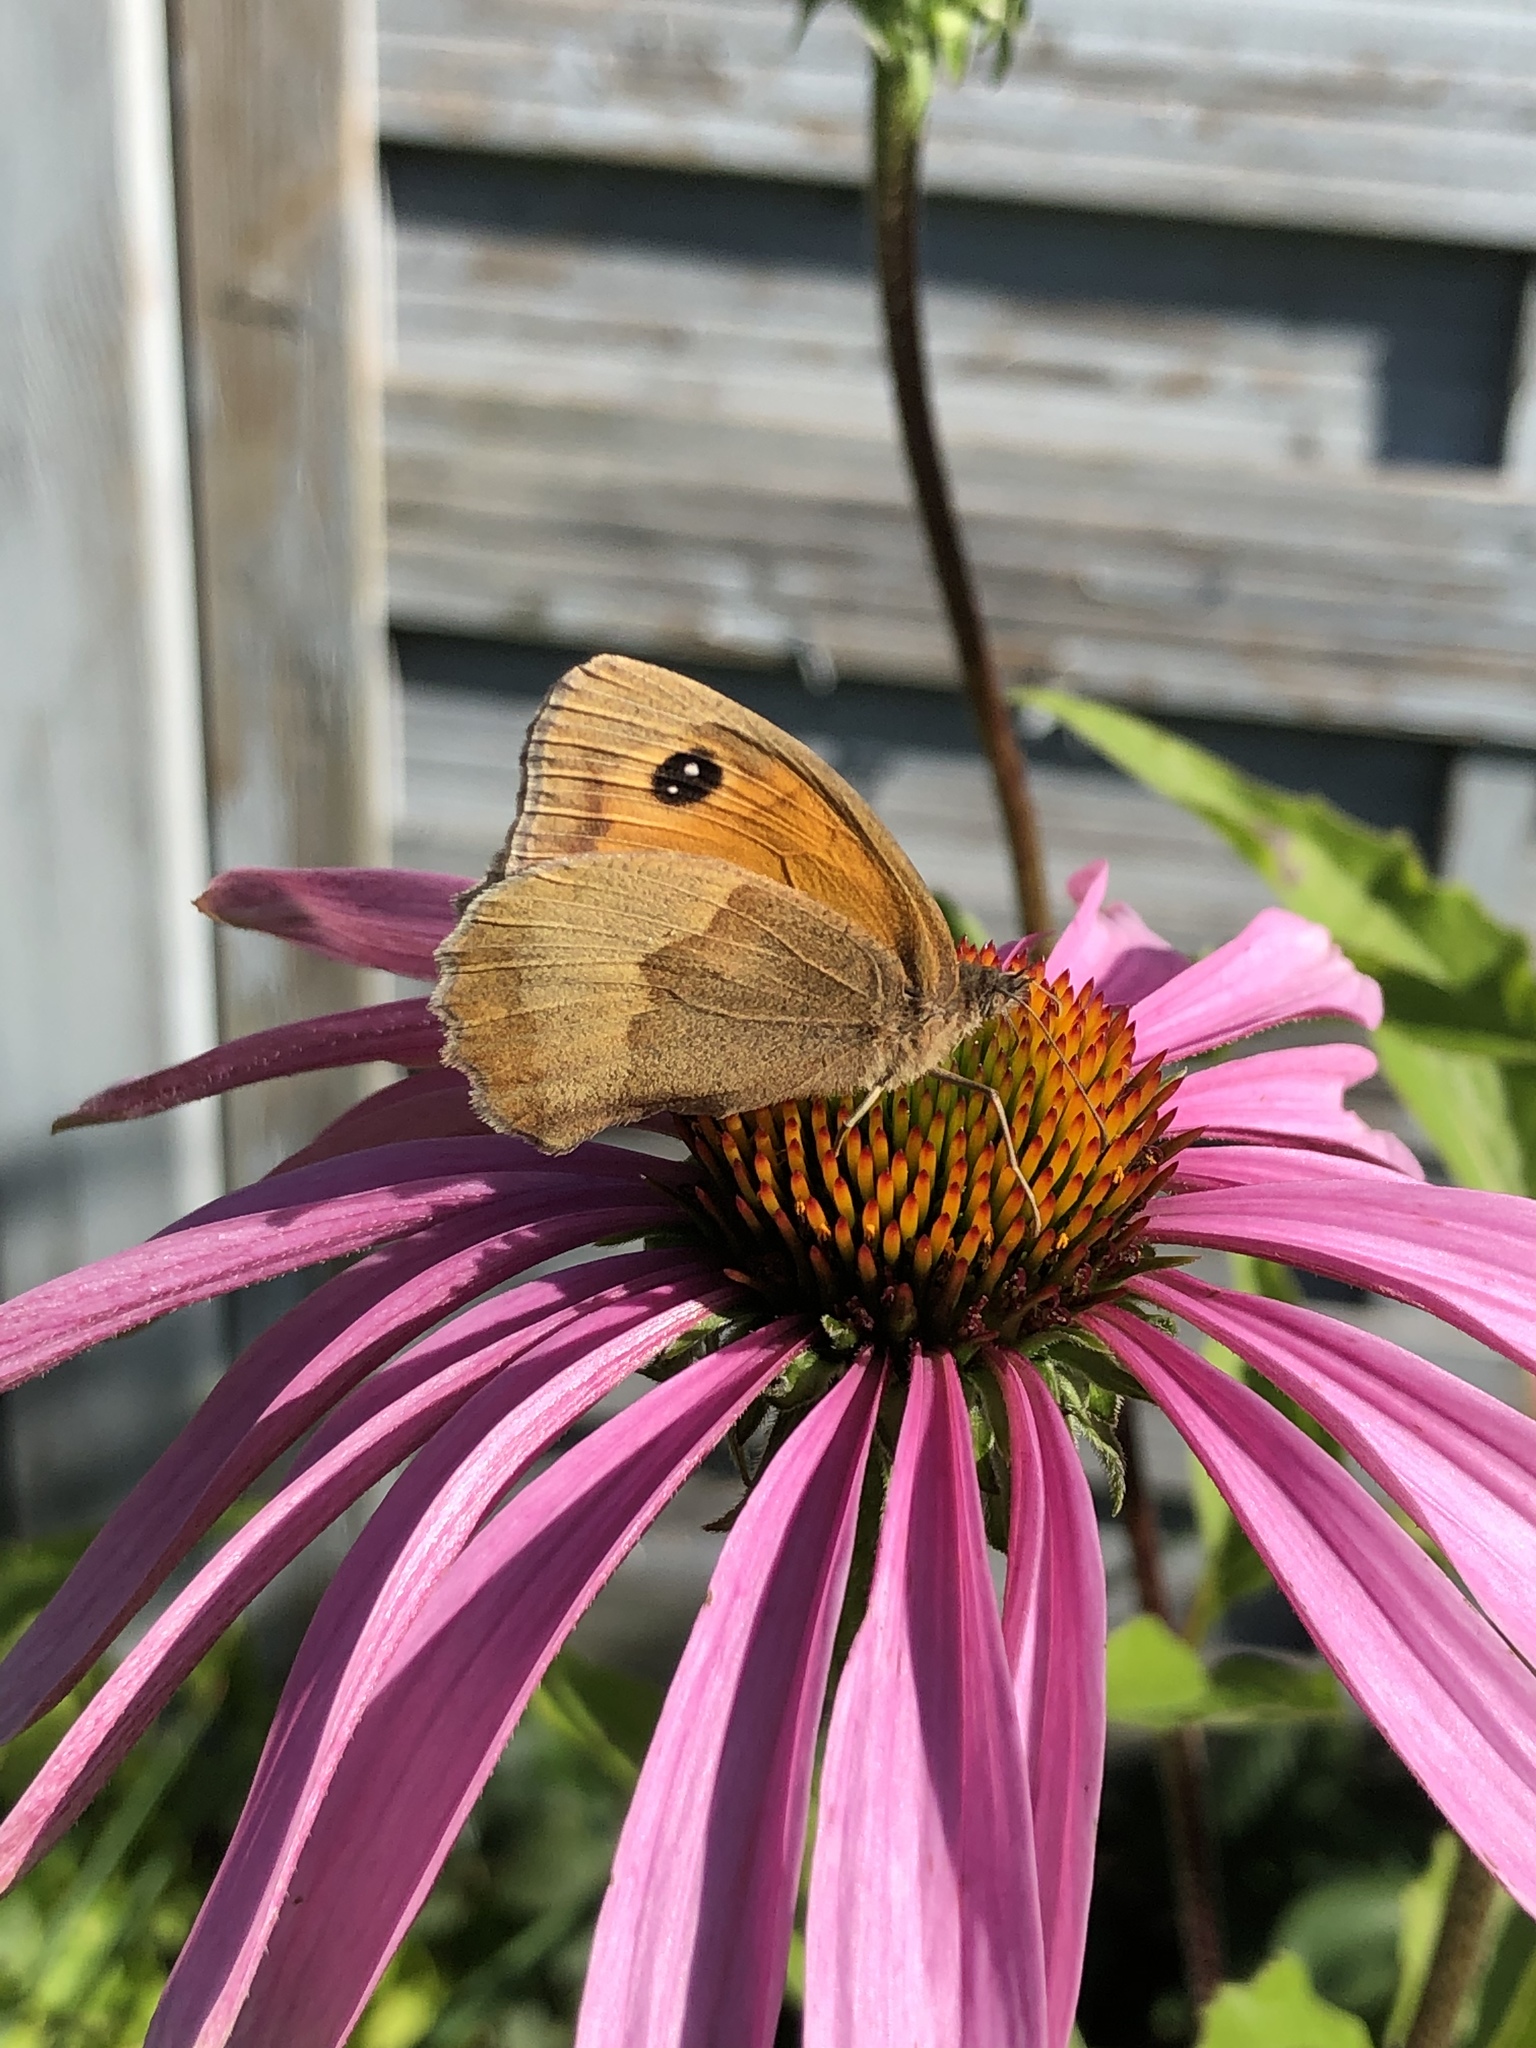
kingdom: Animalia
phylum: Arthropoda
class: Insecta
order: Lepidoptera
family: Nymphalidae
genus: Maniola
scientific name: Maniola jurtina
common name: Meadow brown
